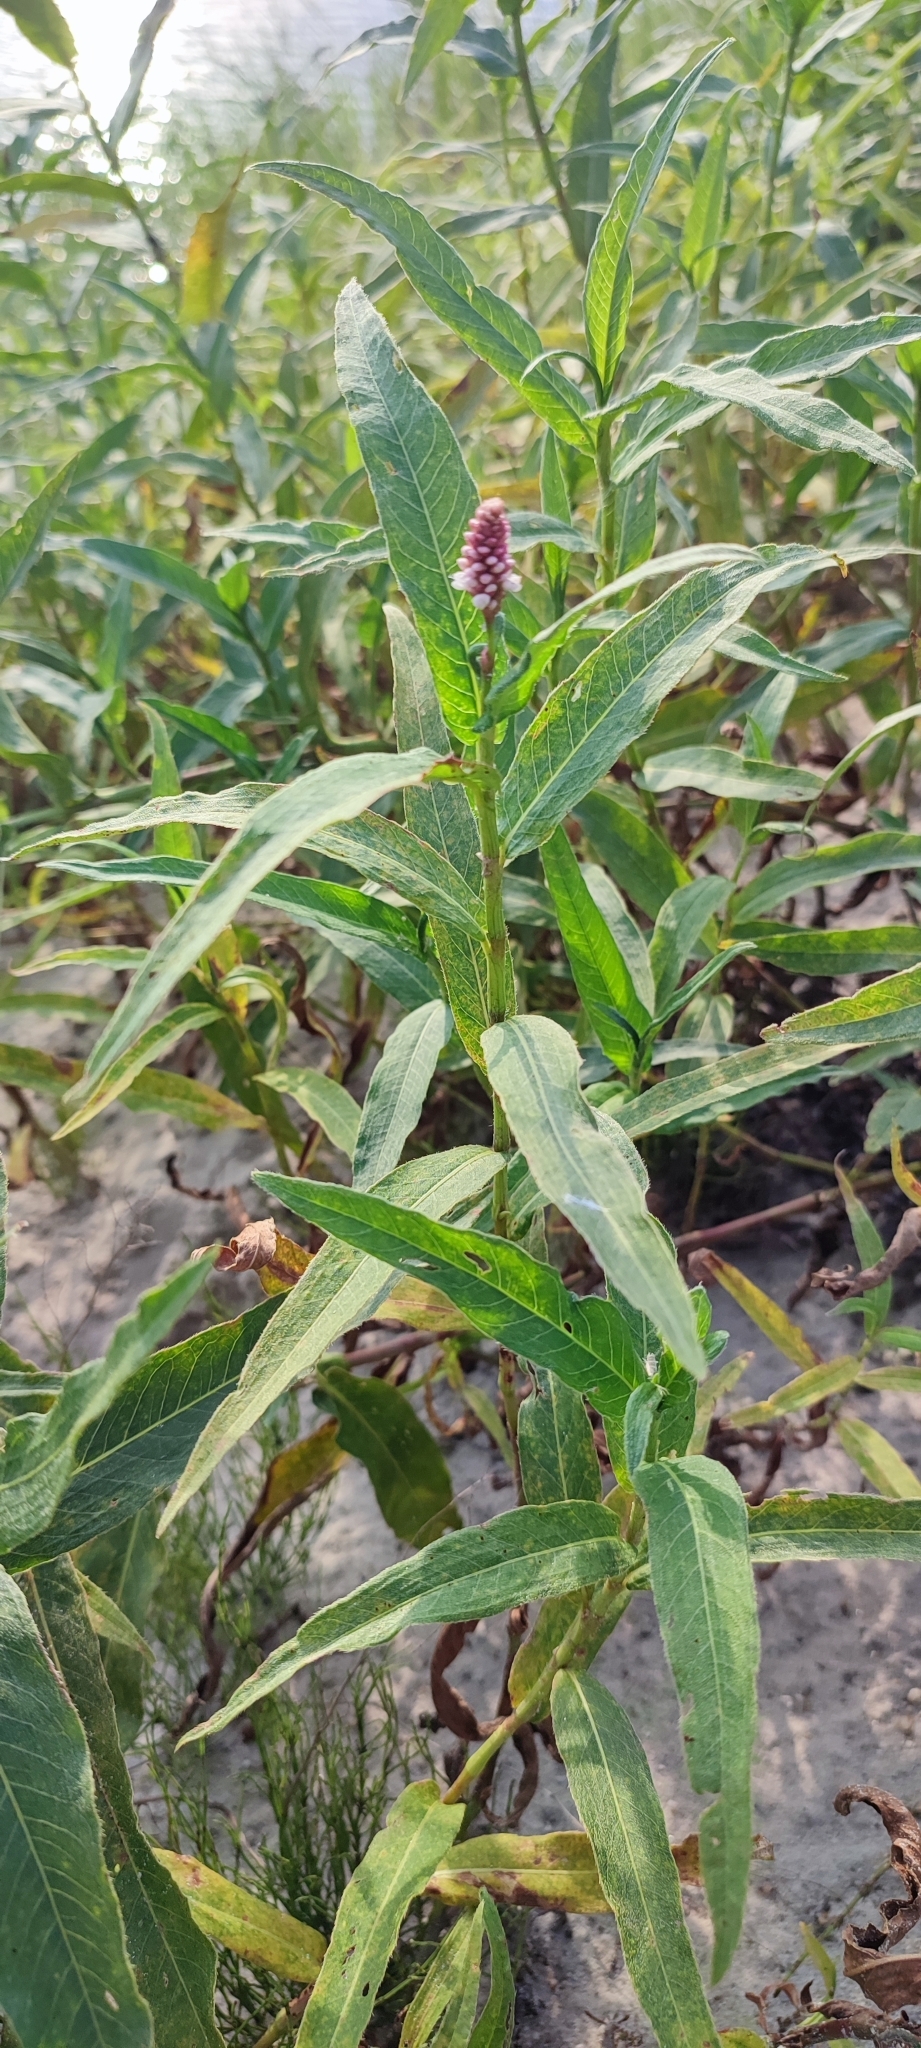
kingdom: Plantae
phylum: Tracheophyta
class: Magnoliopsida
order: Caryophyllales
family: Polygonaceae
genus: Persicaria
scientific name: Persicaria amphibia
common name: Amphibious bistort
